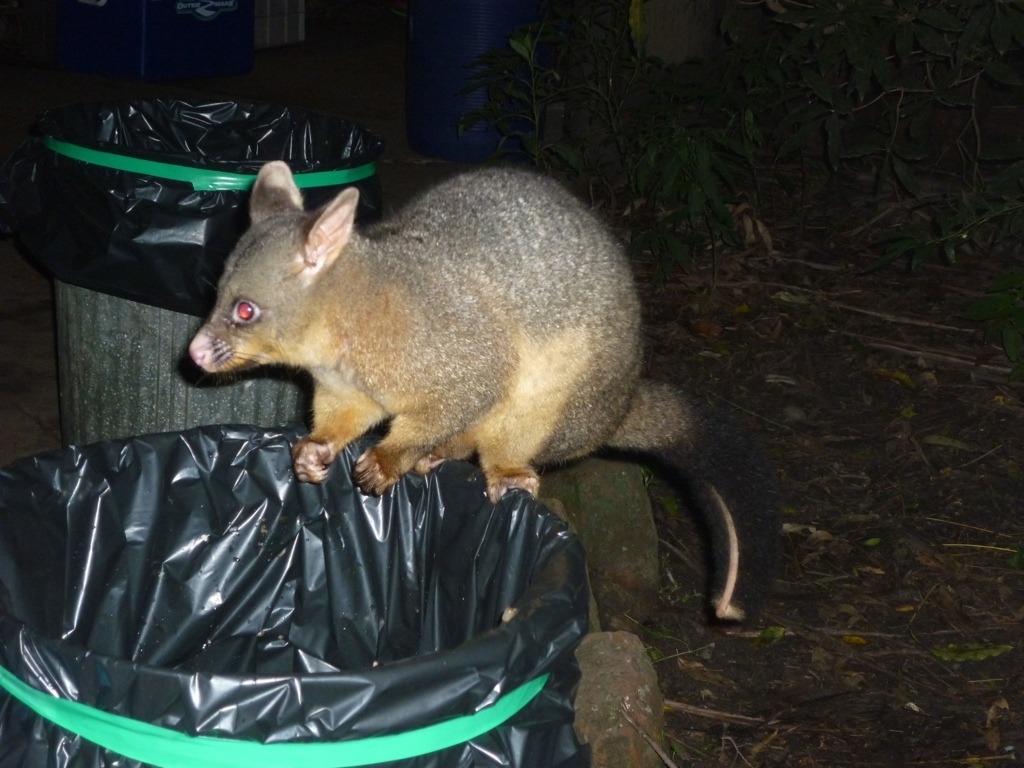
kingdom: Animalia
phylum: Chordata
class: Mammalia
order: Diprotodontia
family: Phalangeridae
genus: Trichosurus
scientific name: Trichosurus vulpecula
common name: Common brushtail
